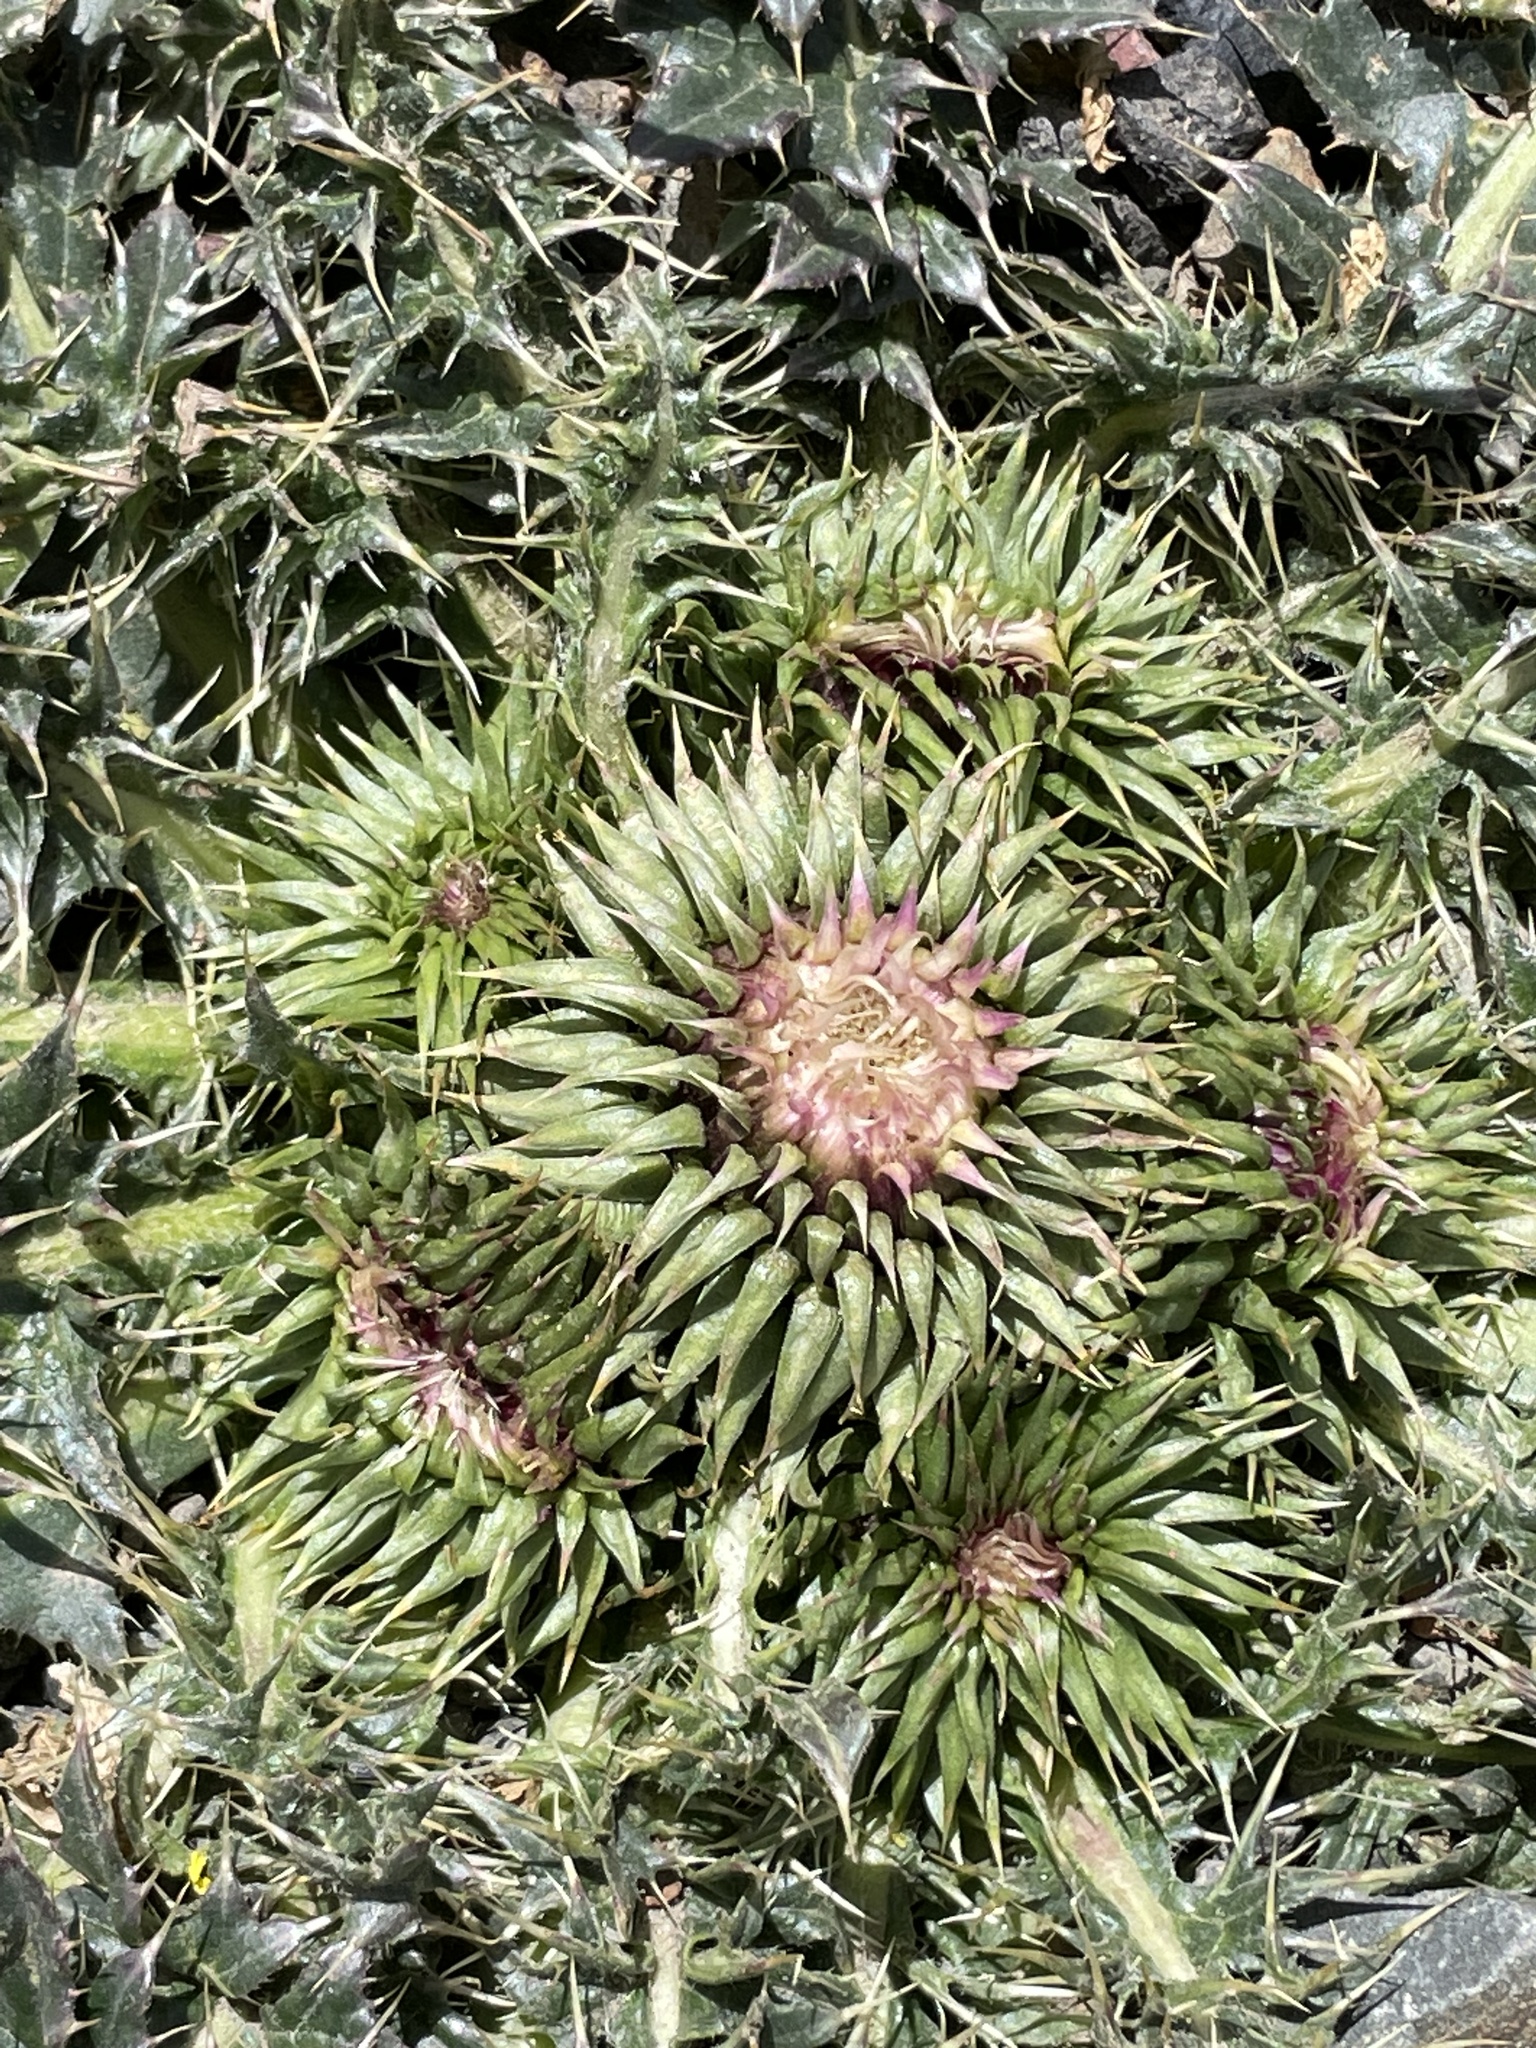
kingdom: Plantae
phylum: Tracheophyta
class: Magnoliopsida
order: Asterales
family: Asteraceae
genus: Carduus
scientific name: Carduus ballii
